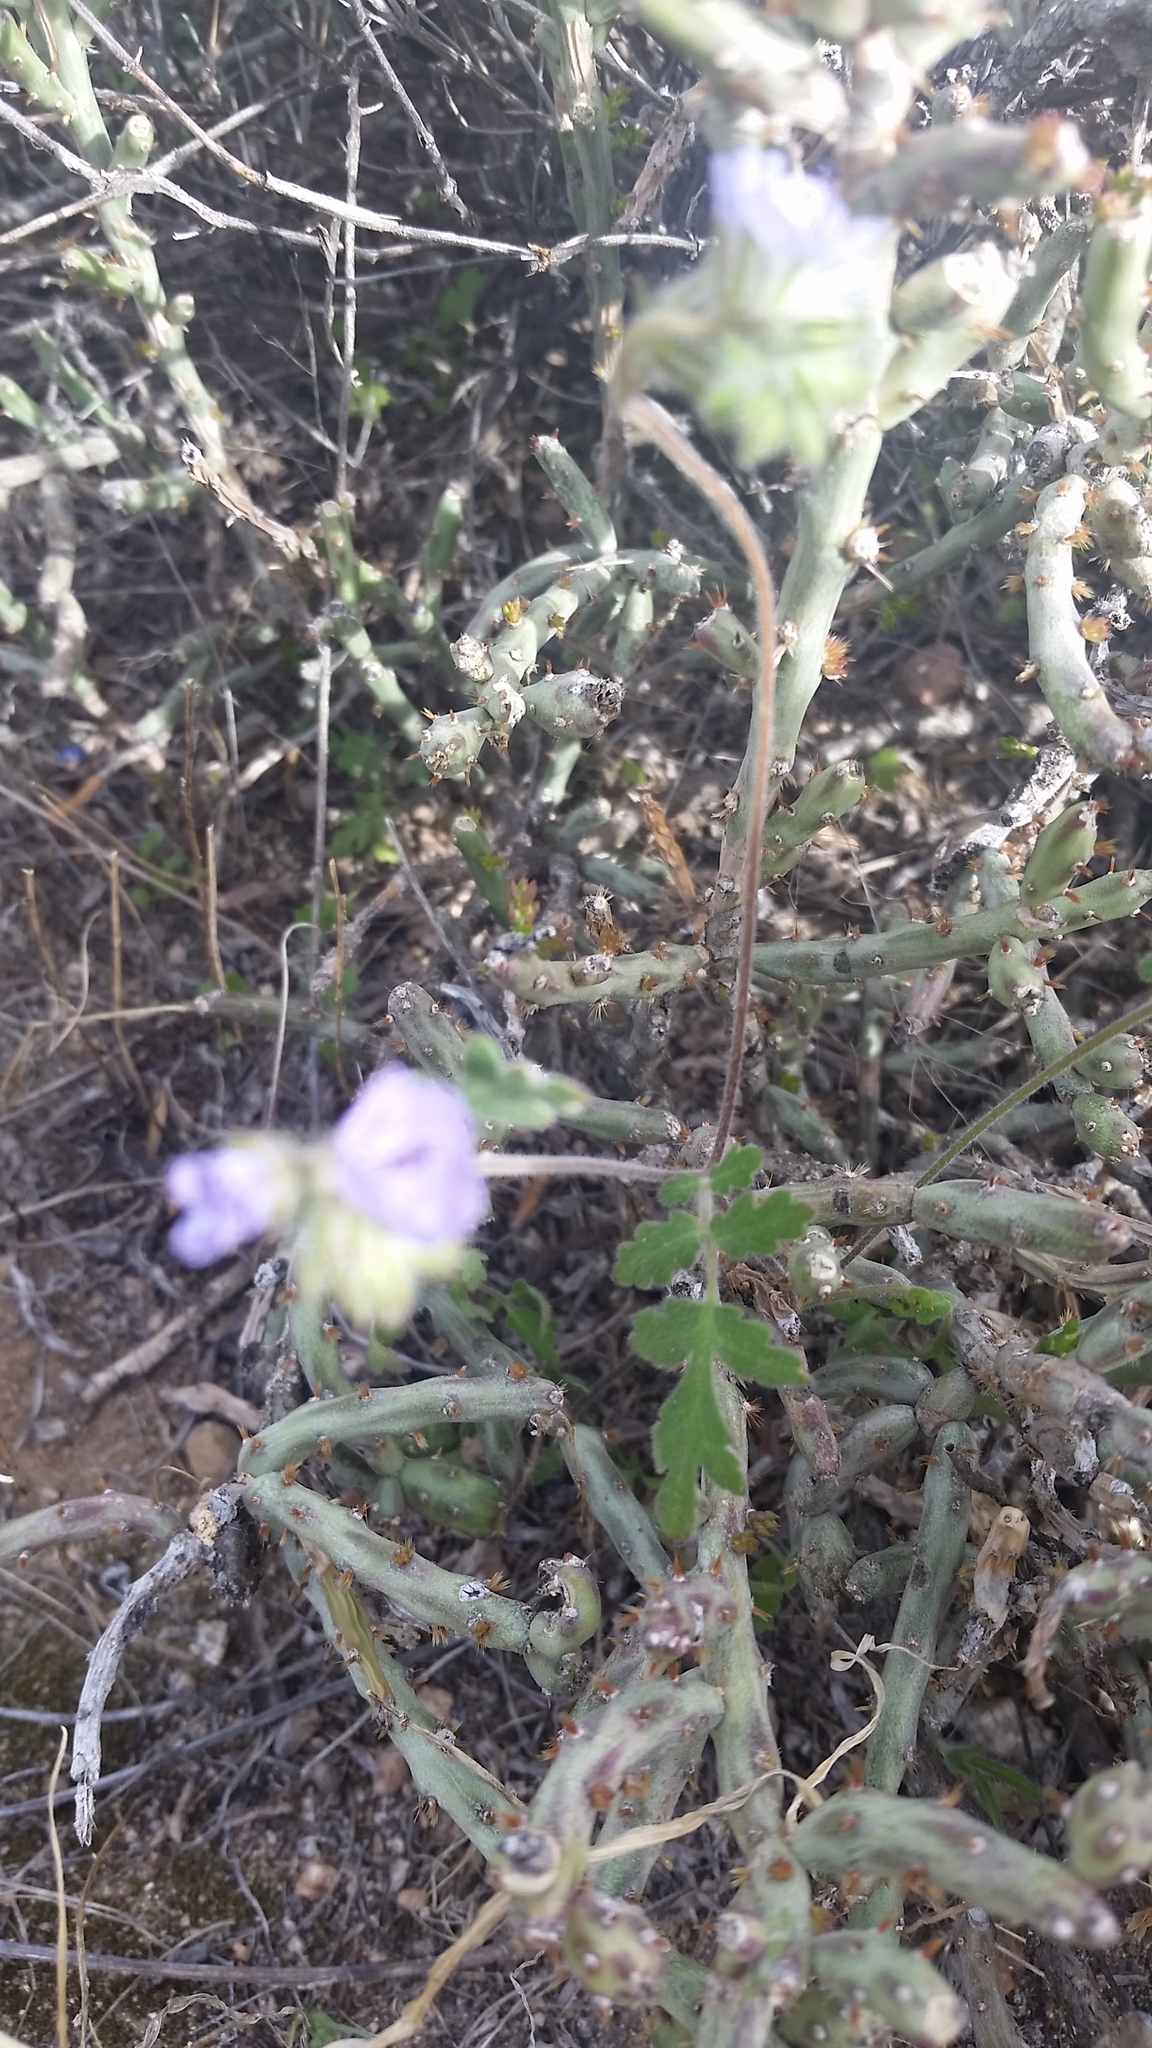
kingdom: Plantae
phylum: Tracheophyta
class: Magnoliopsida
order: Boraginales
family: Hydrophyllaceae
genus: Phacelia
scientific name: Phacelia distans
